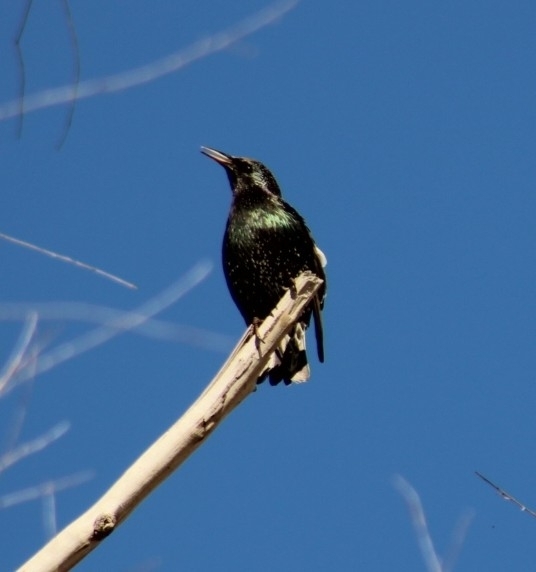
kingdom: Animalia
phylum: Chordata
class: Aves
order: Passeriformes
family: Sturnidae
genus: Sturnus
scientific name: Sturnus vulgaris
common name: Common starling
